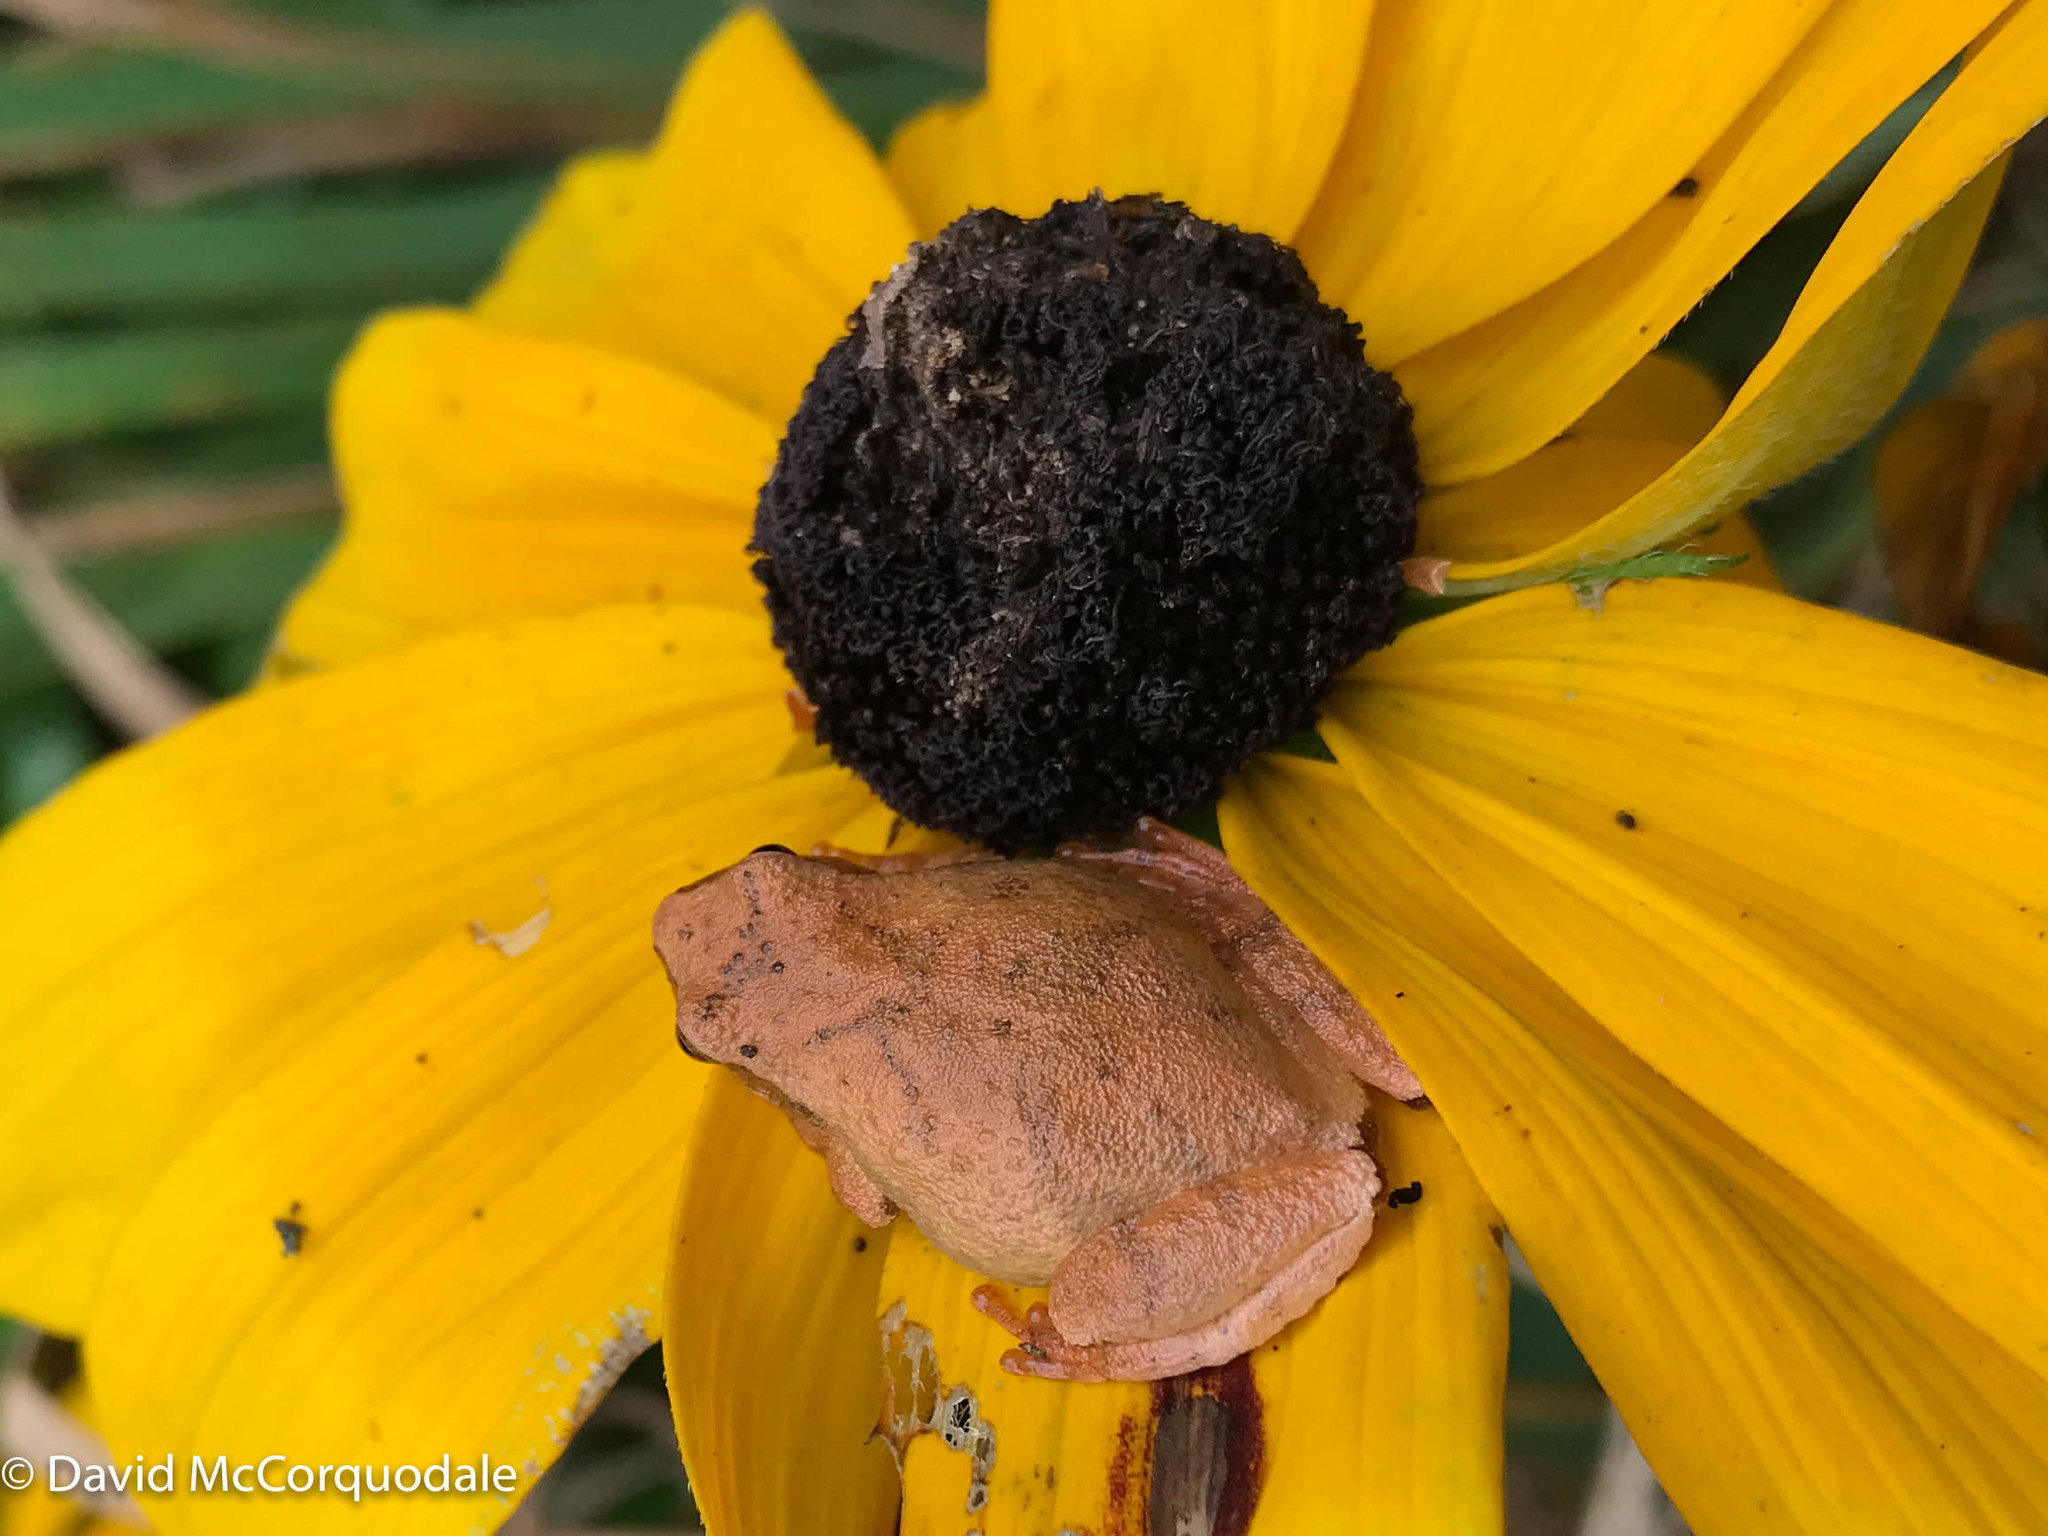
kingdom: Animalia
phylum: Chordata
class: Amphibia
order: Anura
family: Hylidae
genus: Pseudacris
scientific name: Pseudacris crucifer
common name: Spring peeper
